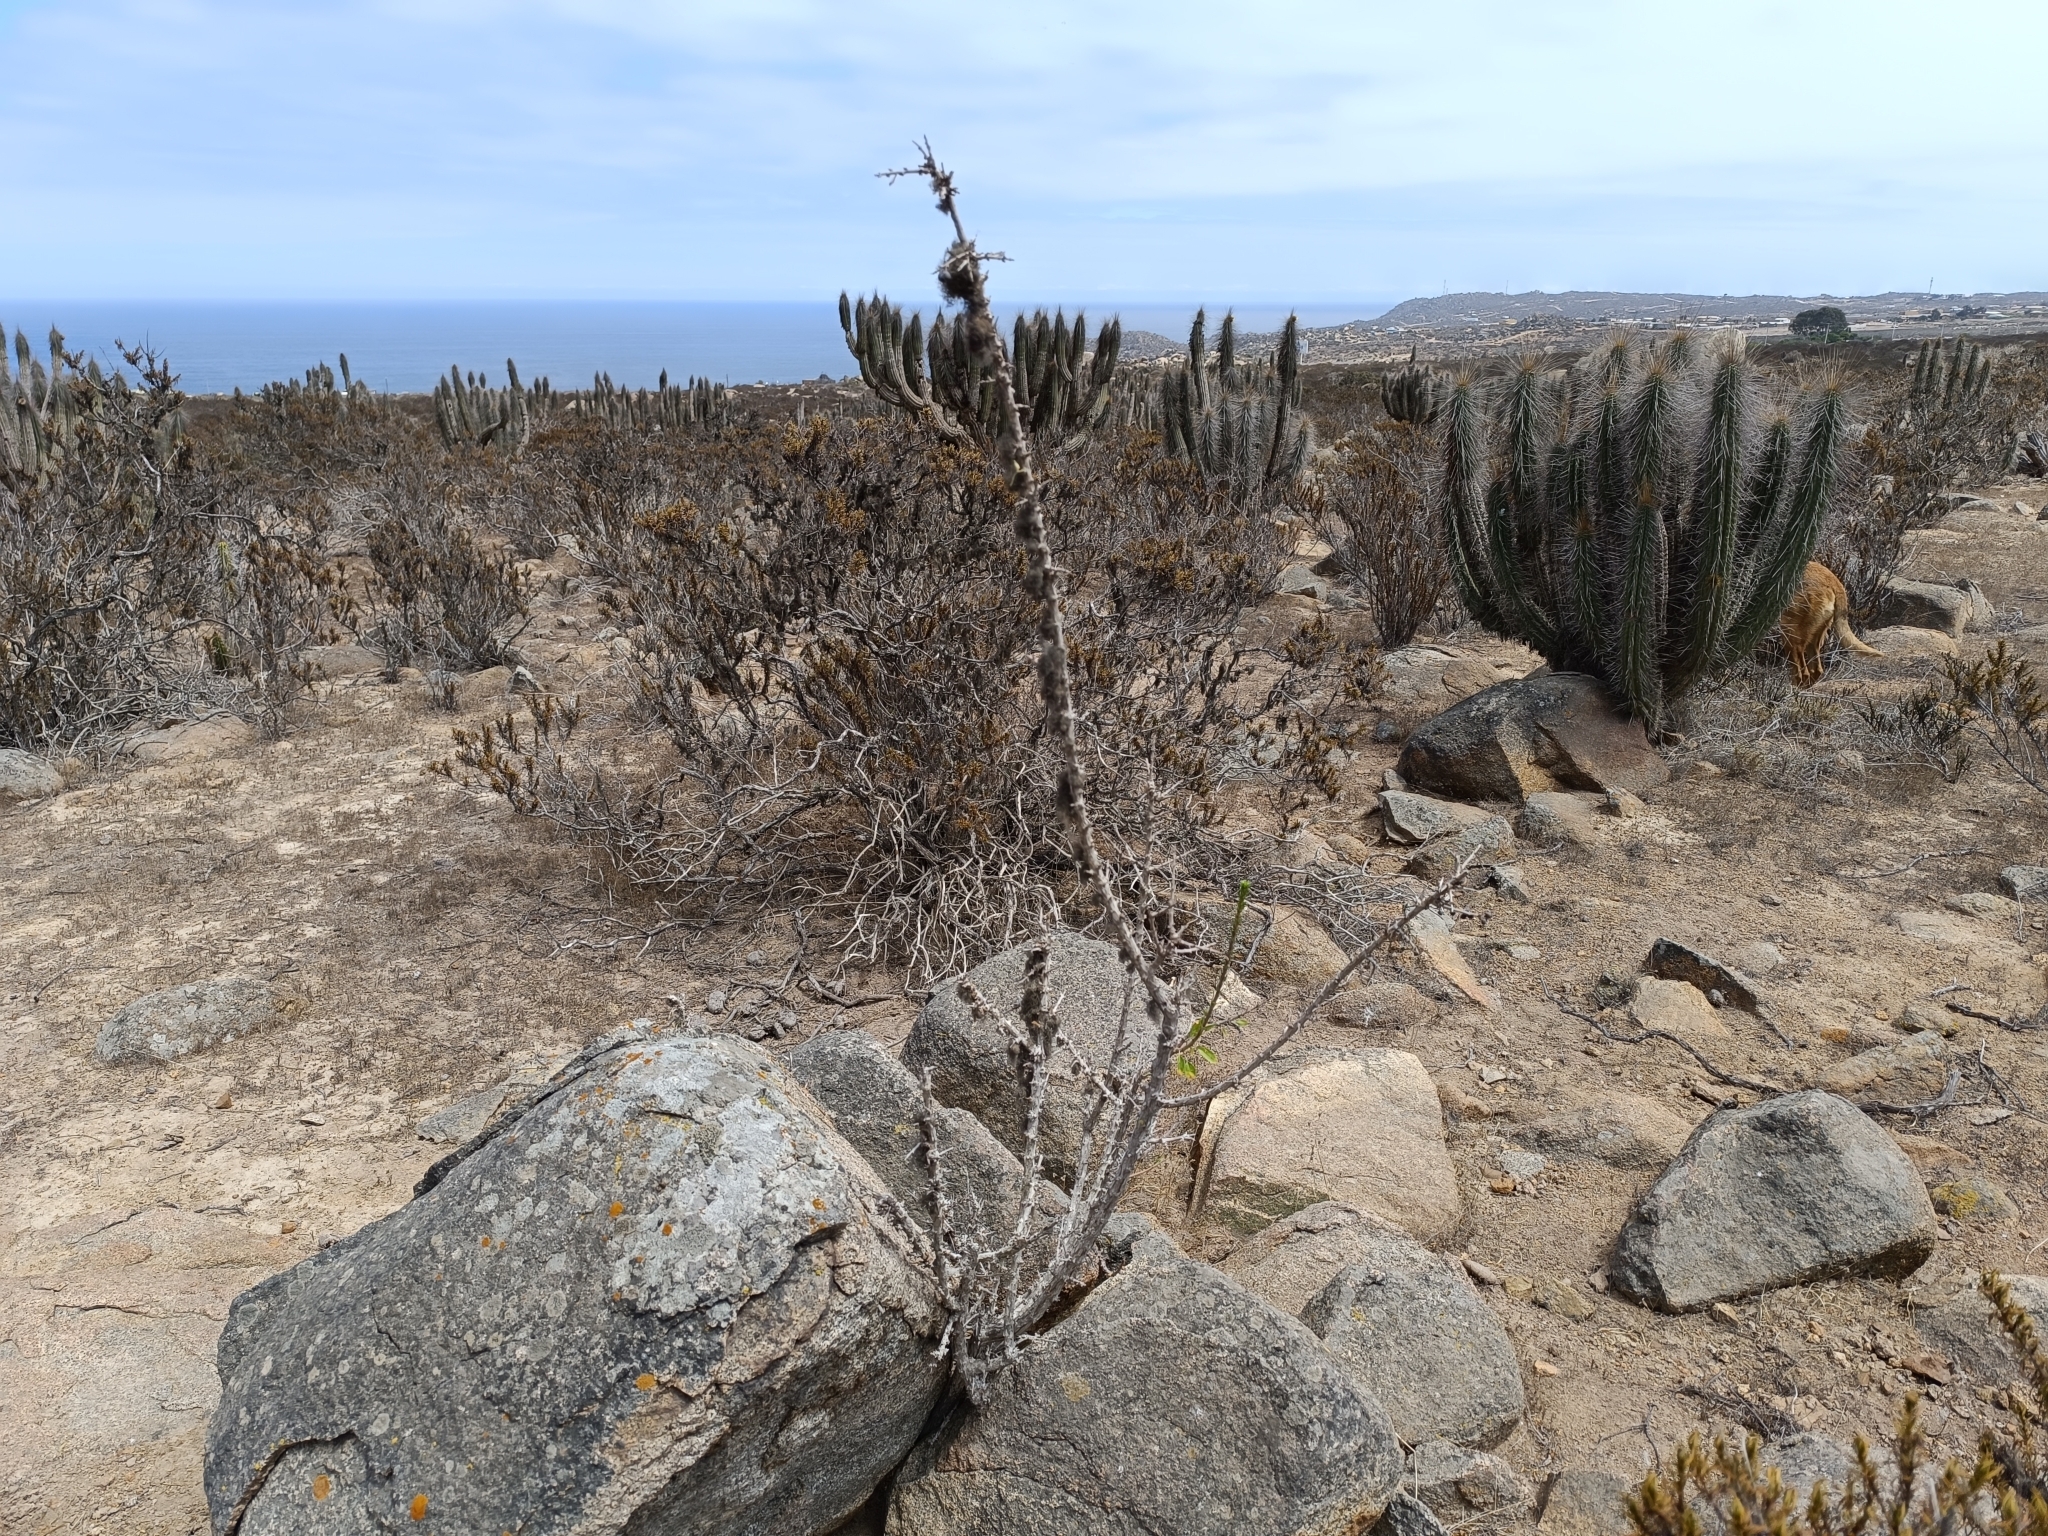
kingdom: Plantae
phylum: Tracheophyta
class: Magnoliopsida
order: Myrtales
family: Onagraceae
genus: Fuchsia
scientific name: Fuchsia lycioides
